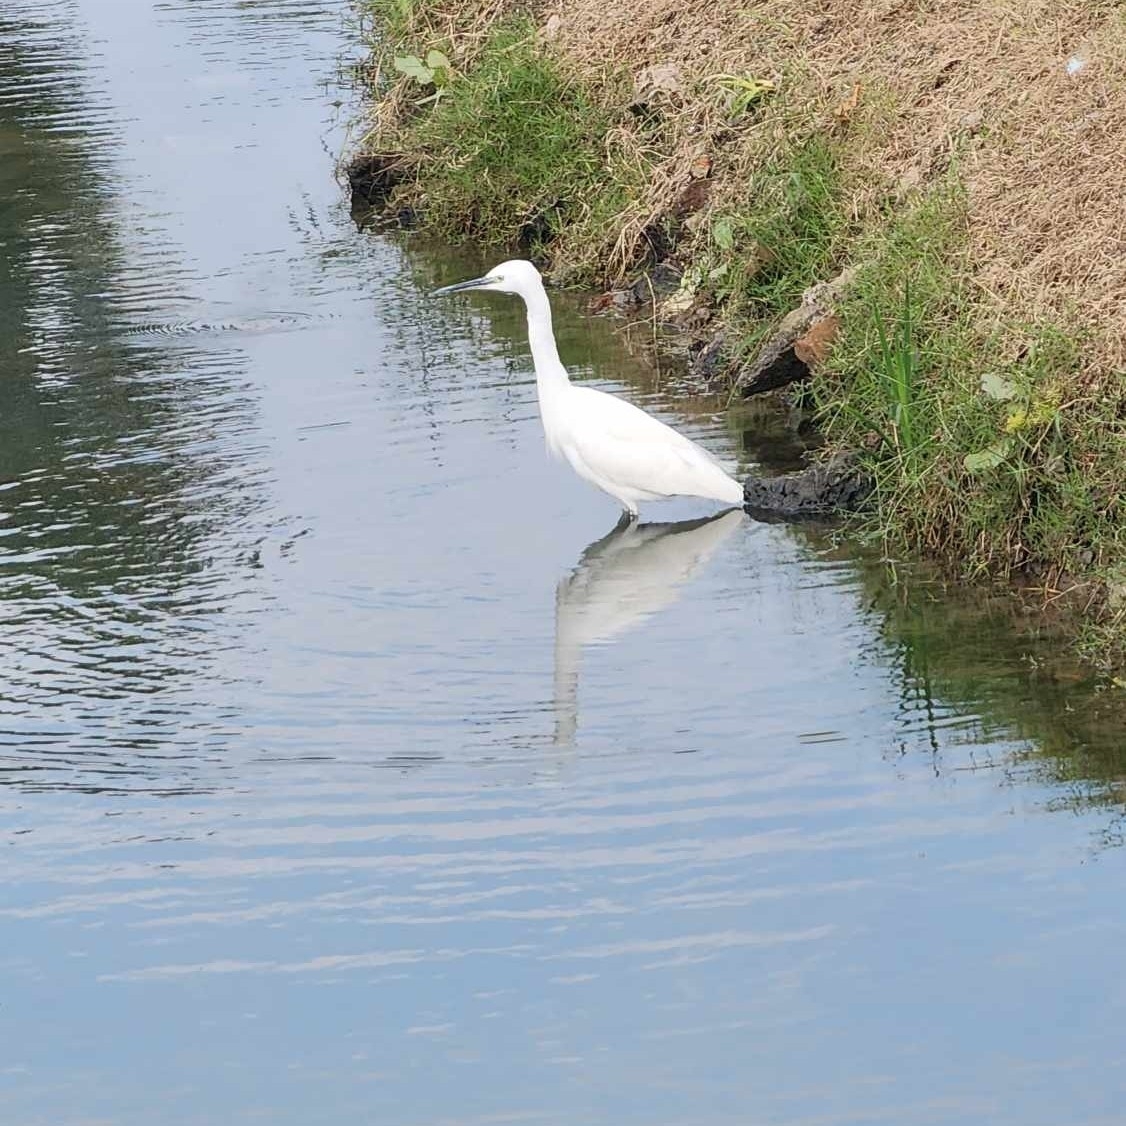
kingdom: Animalia
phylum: Chordata
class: Aves
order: Pelecaniformes
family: Ardeidae
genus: Egretta
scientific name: Egretta garzetta
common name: Little egret
